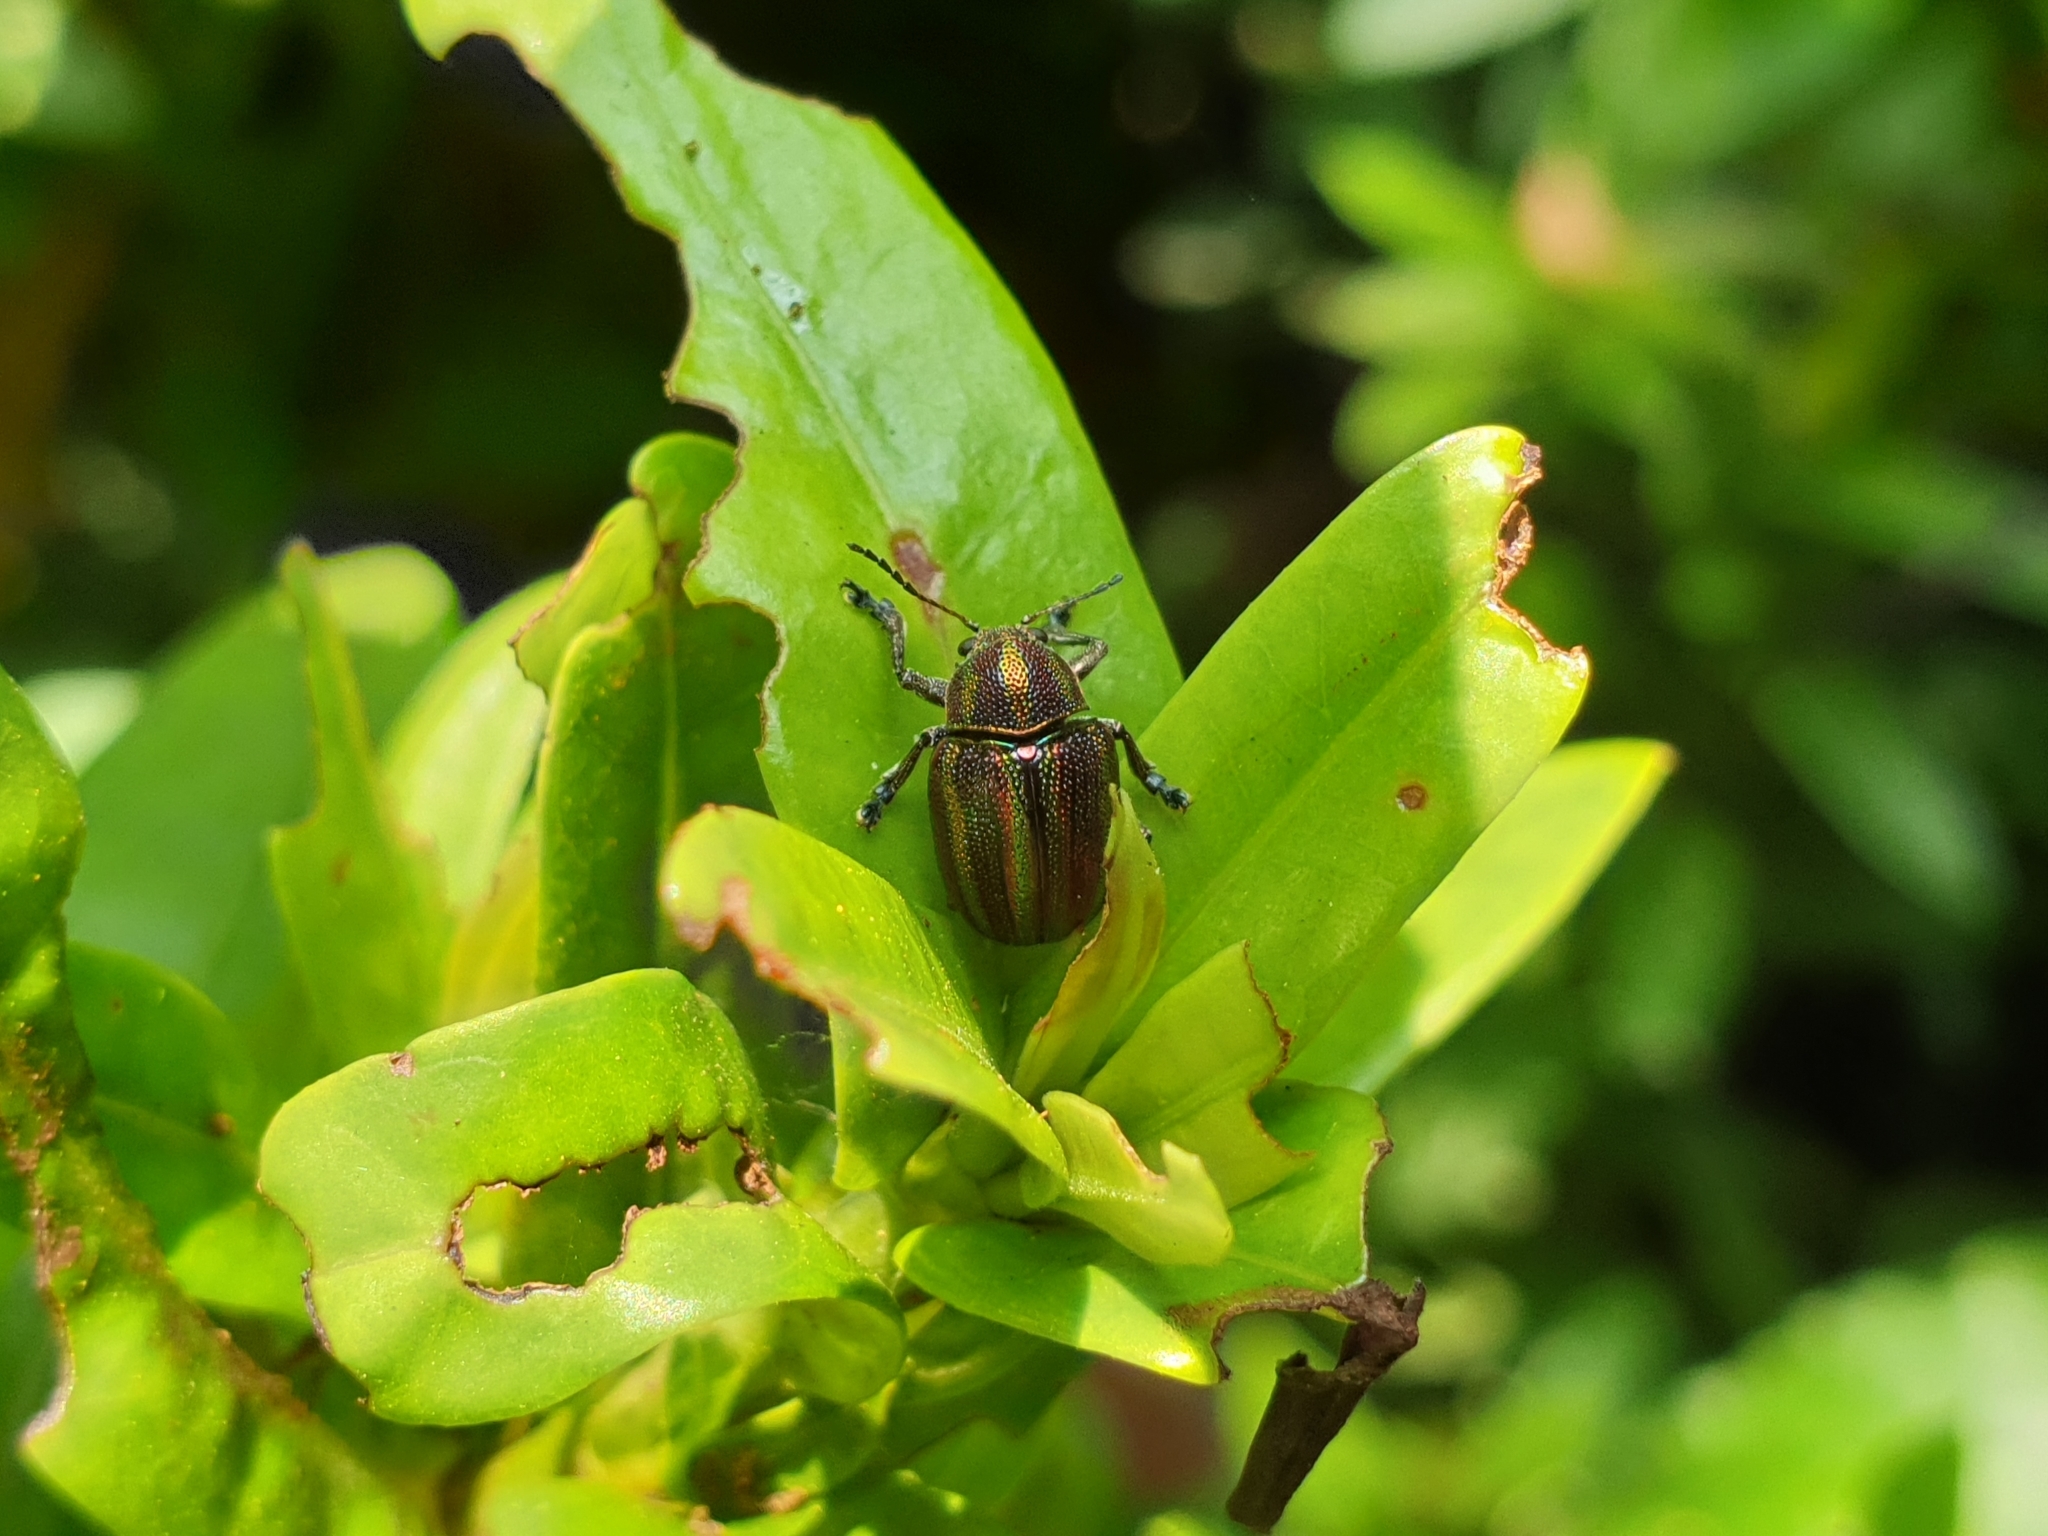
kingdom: Animalia
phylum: Arthropoda
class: Insecta
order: Coleoptera
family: Chrysomelidae
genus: Eurypelta
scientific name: Eurypelta
